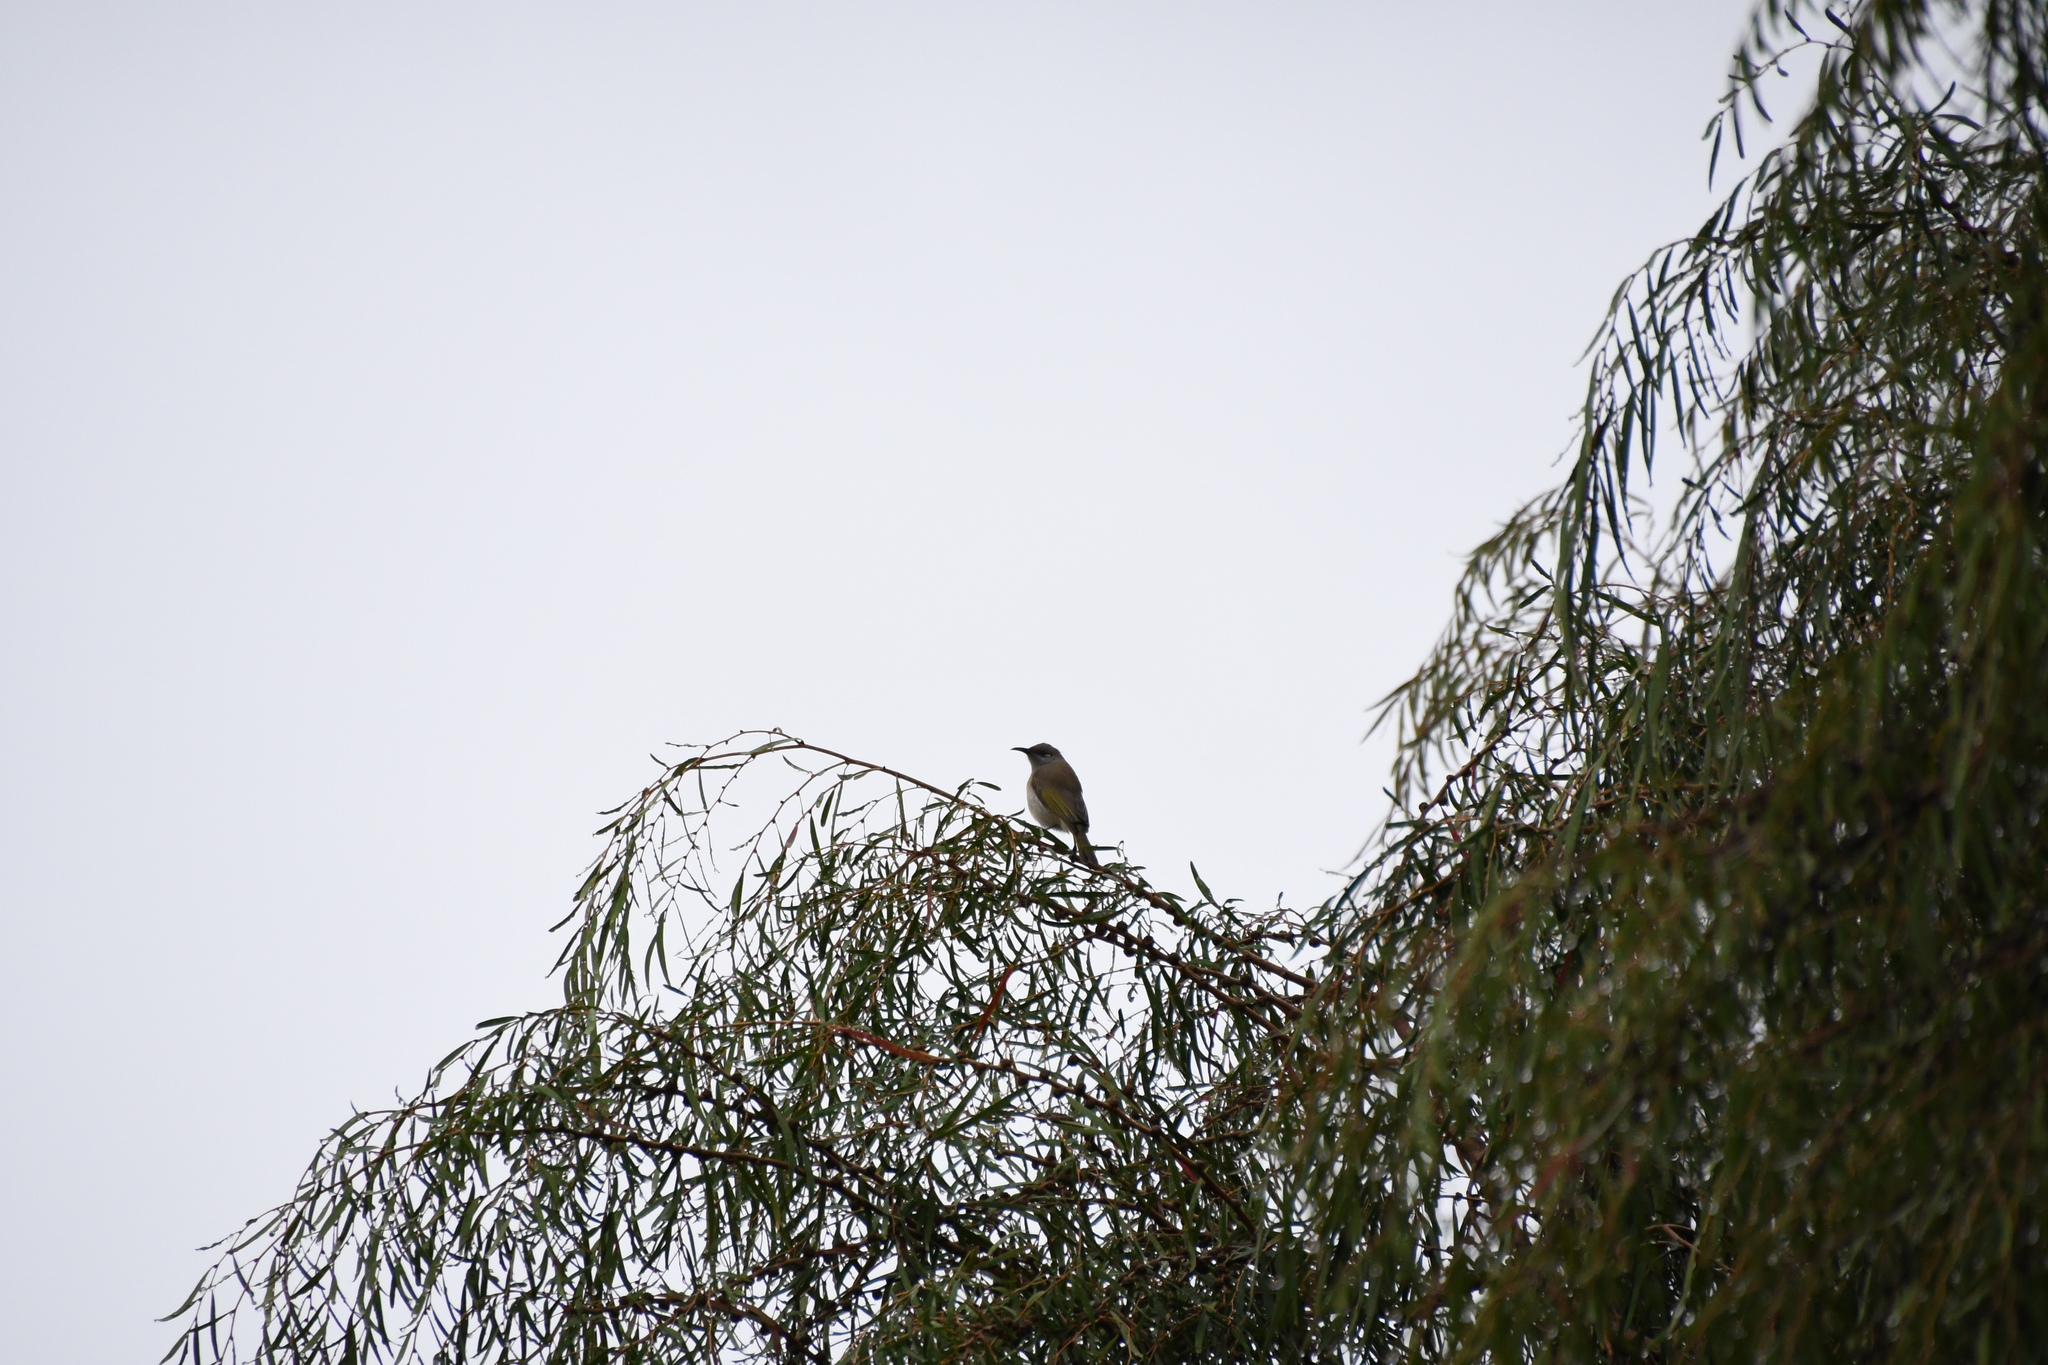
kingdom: Animalia
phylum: Chordata
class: Aves
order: Passeriformes
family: Meliphagidae
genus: Lichmera
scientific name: Lichmera indistincta
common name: Brown honeyeater
